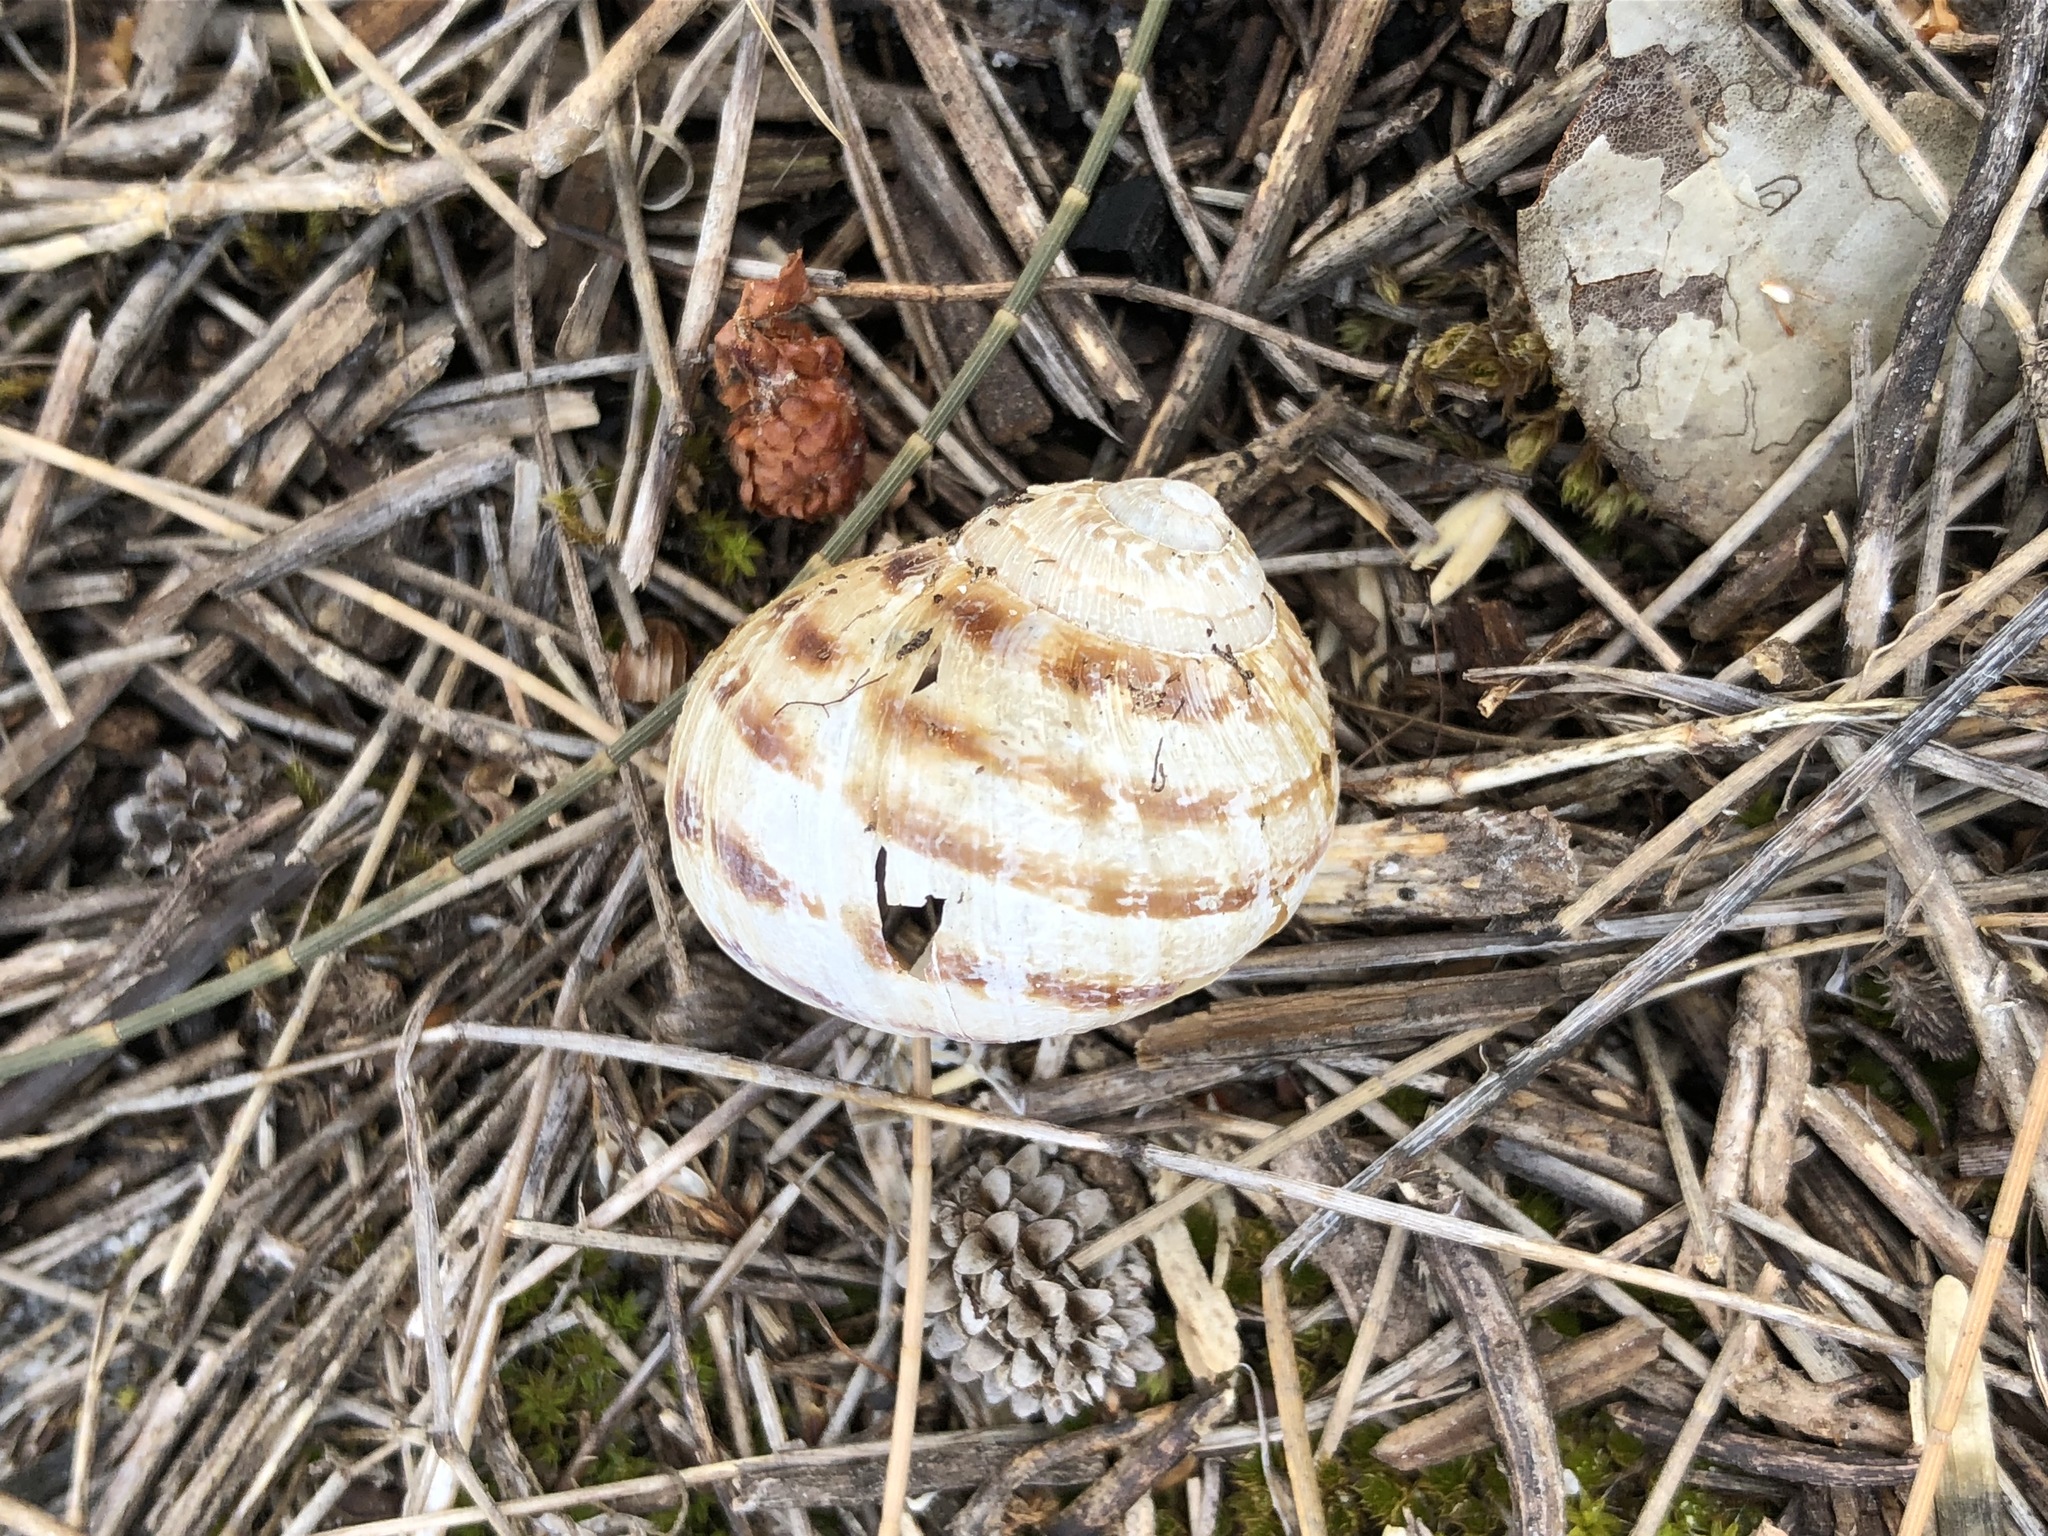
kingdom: Animalia
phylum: Mollusca
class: Gastropoda
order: Stylommatophora
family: Helicidae
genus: Theba
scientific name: Theba pisana
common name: White snail
